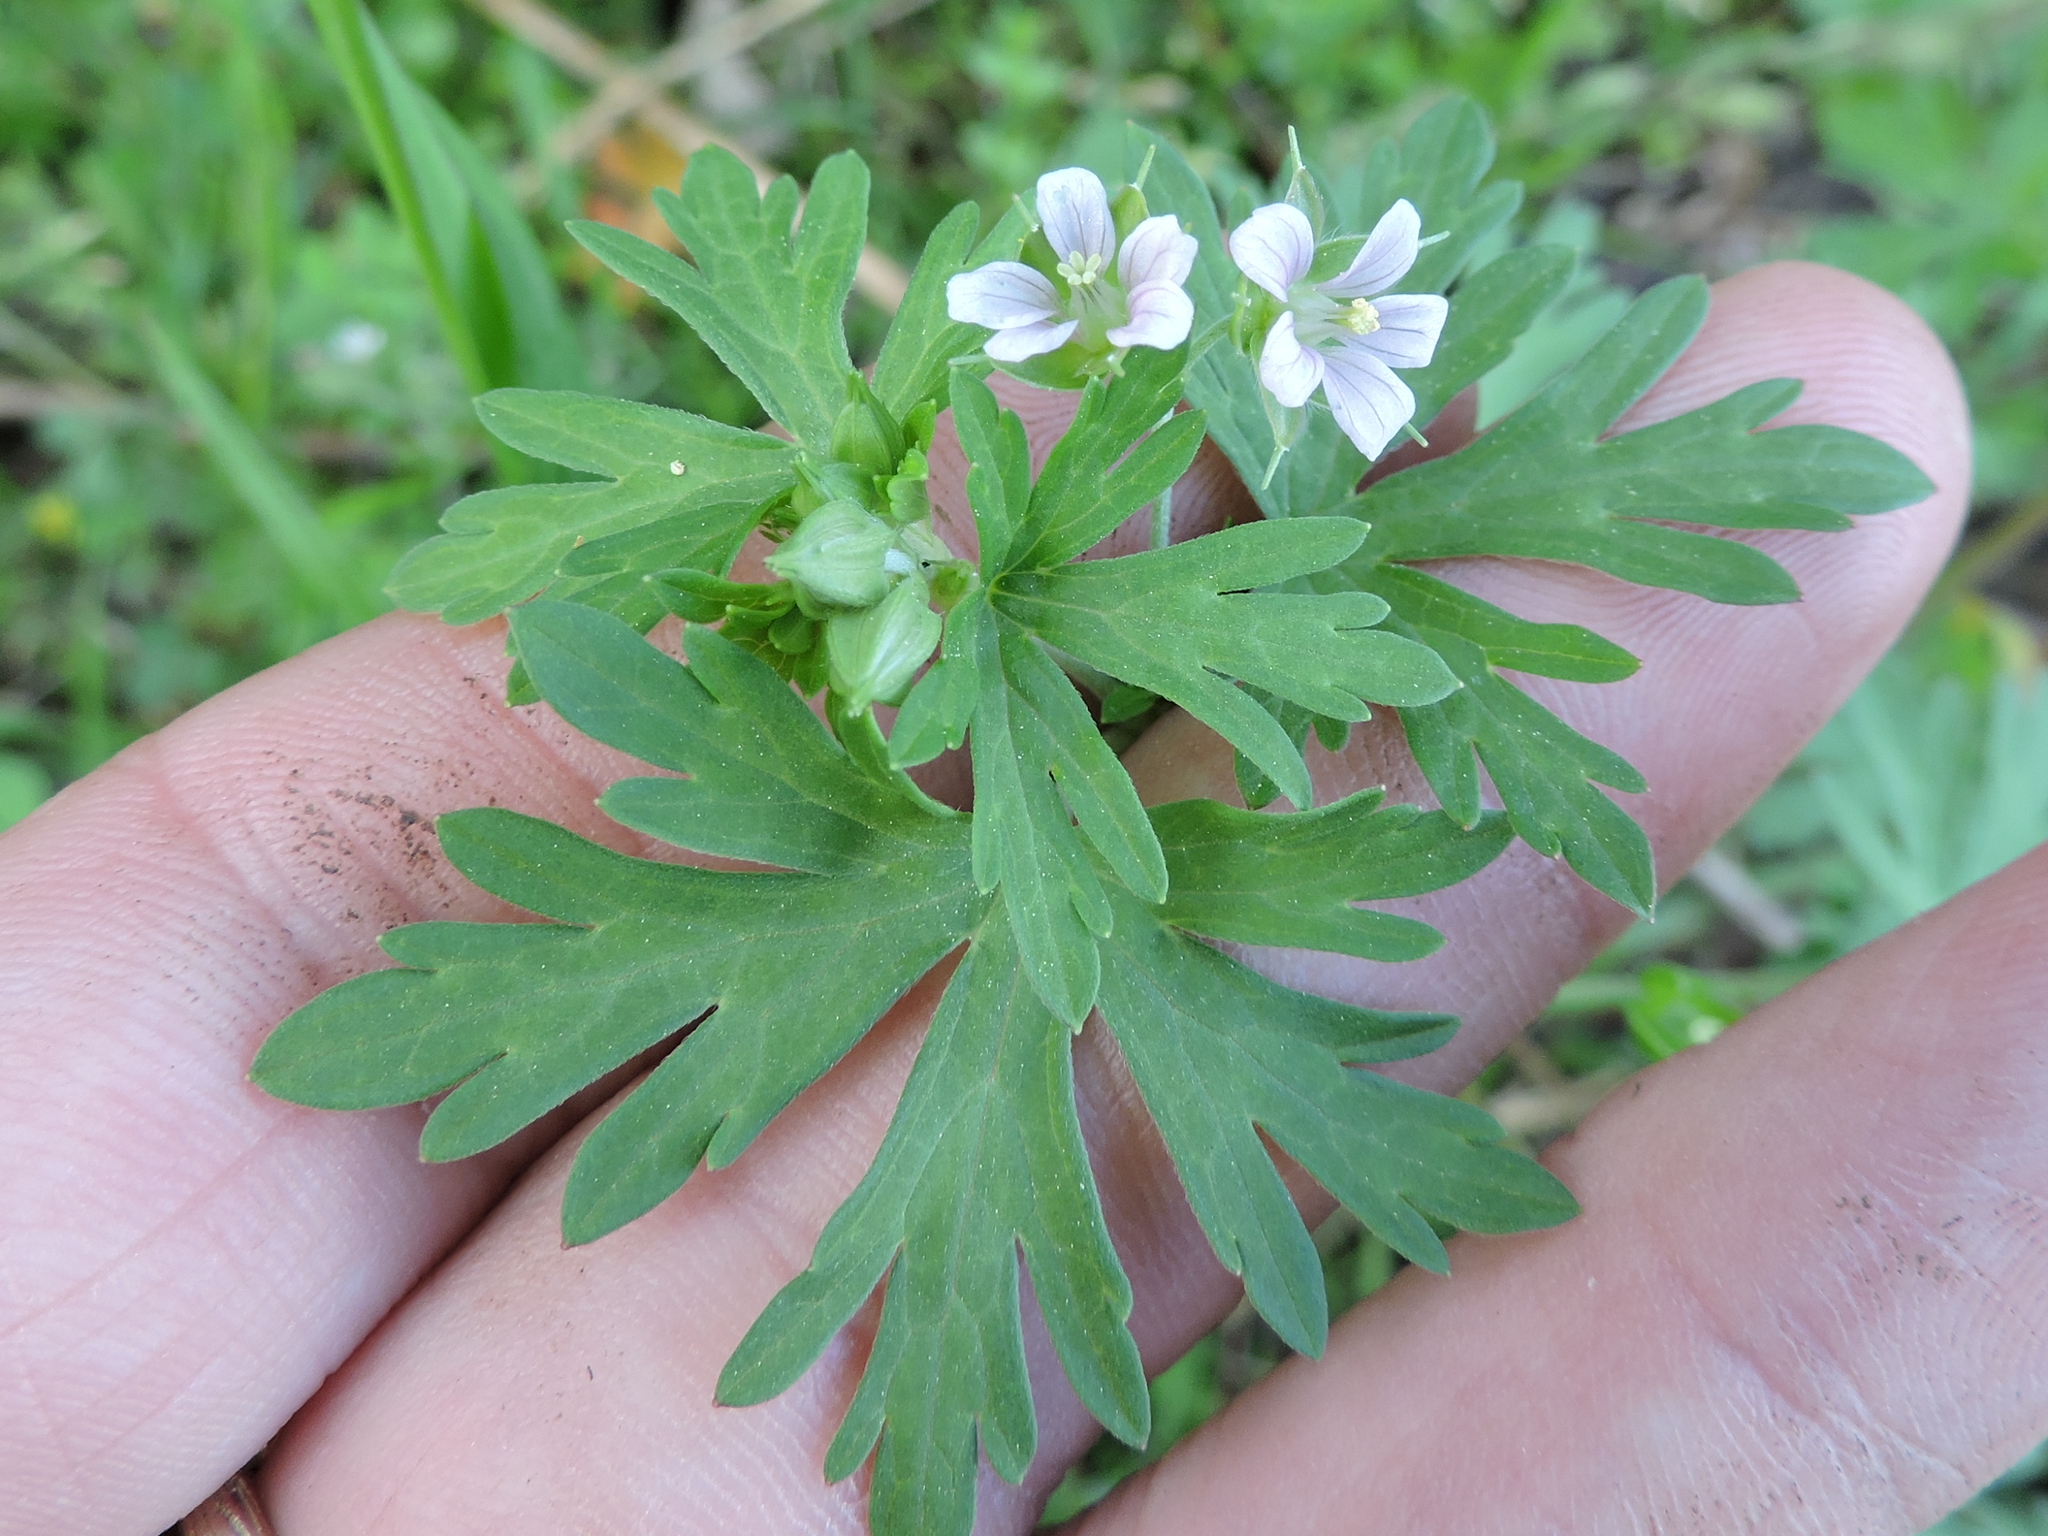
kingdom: Plantae
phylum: Tracheophyta
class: Magnoliopsida
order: Geraniales
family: Geraniaceae
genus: Geranium
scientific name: Geranium carolinianum
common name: Carolina crane's-bill
